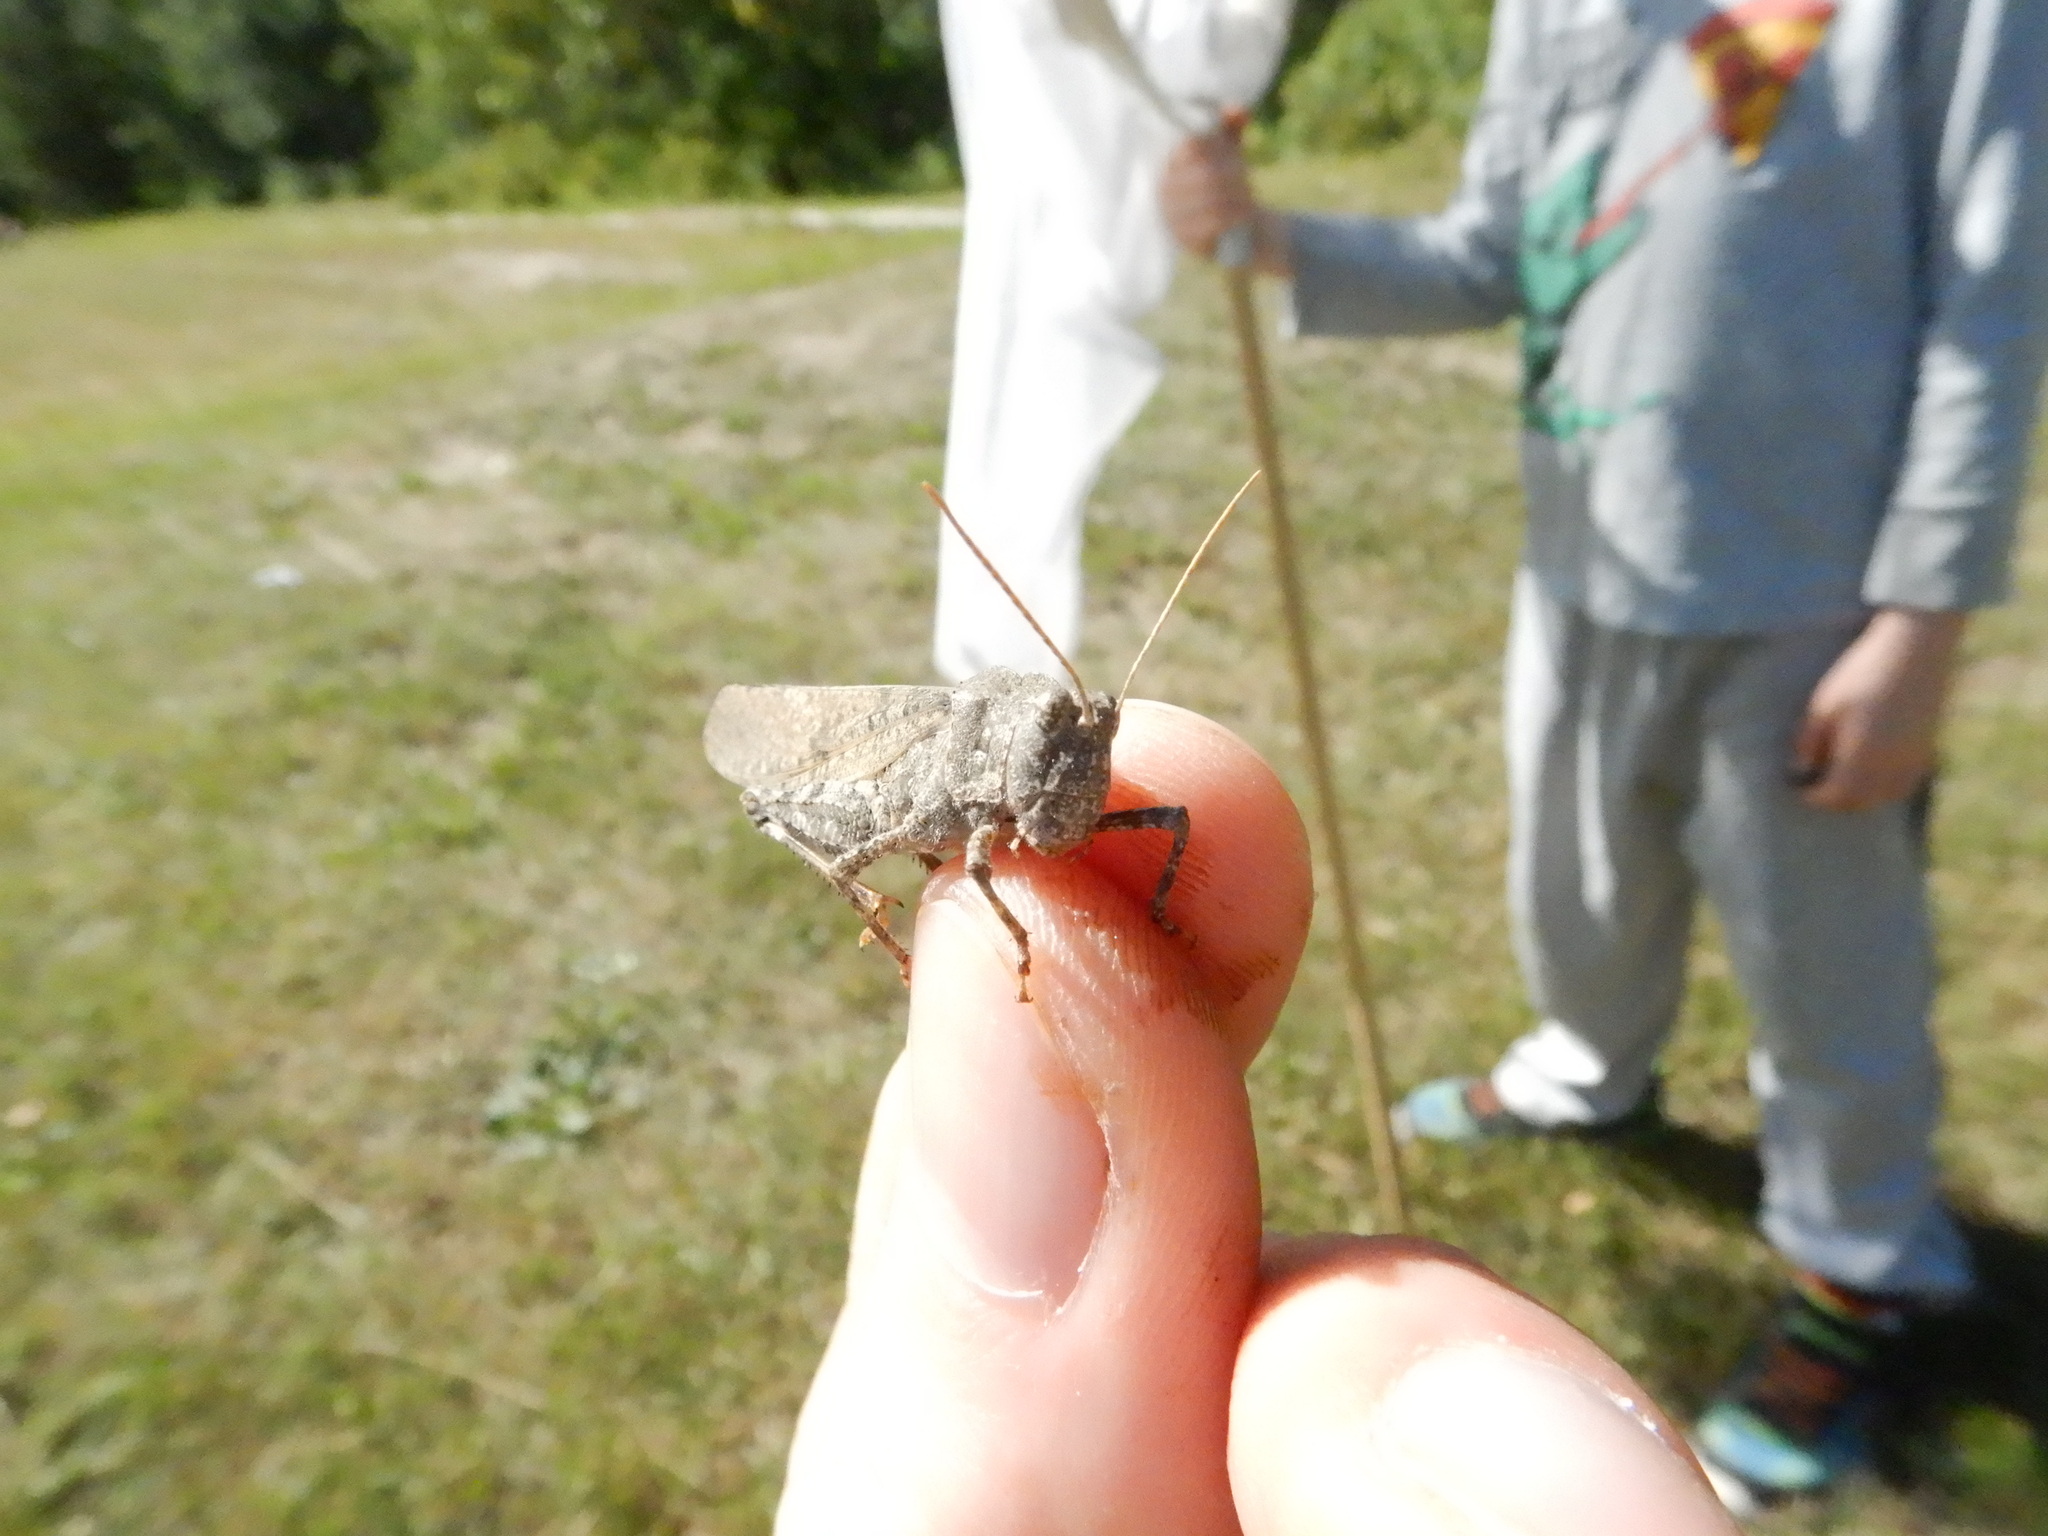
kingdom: Animalia
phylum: Arthropoda
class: Insecta
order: Orthoptera
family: Acrididae
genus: Dissosteira
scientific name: Dissosteira carolina
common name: Carolina grasshopper
